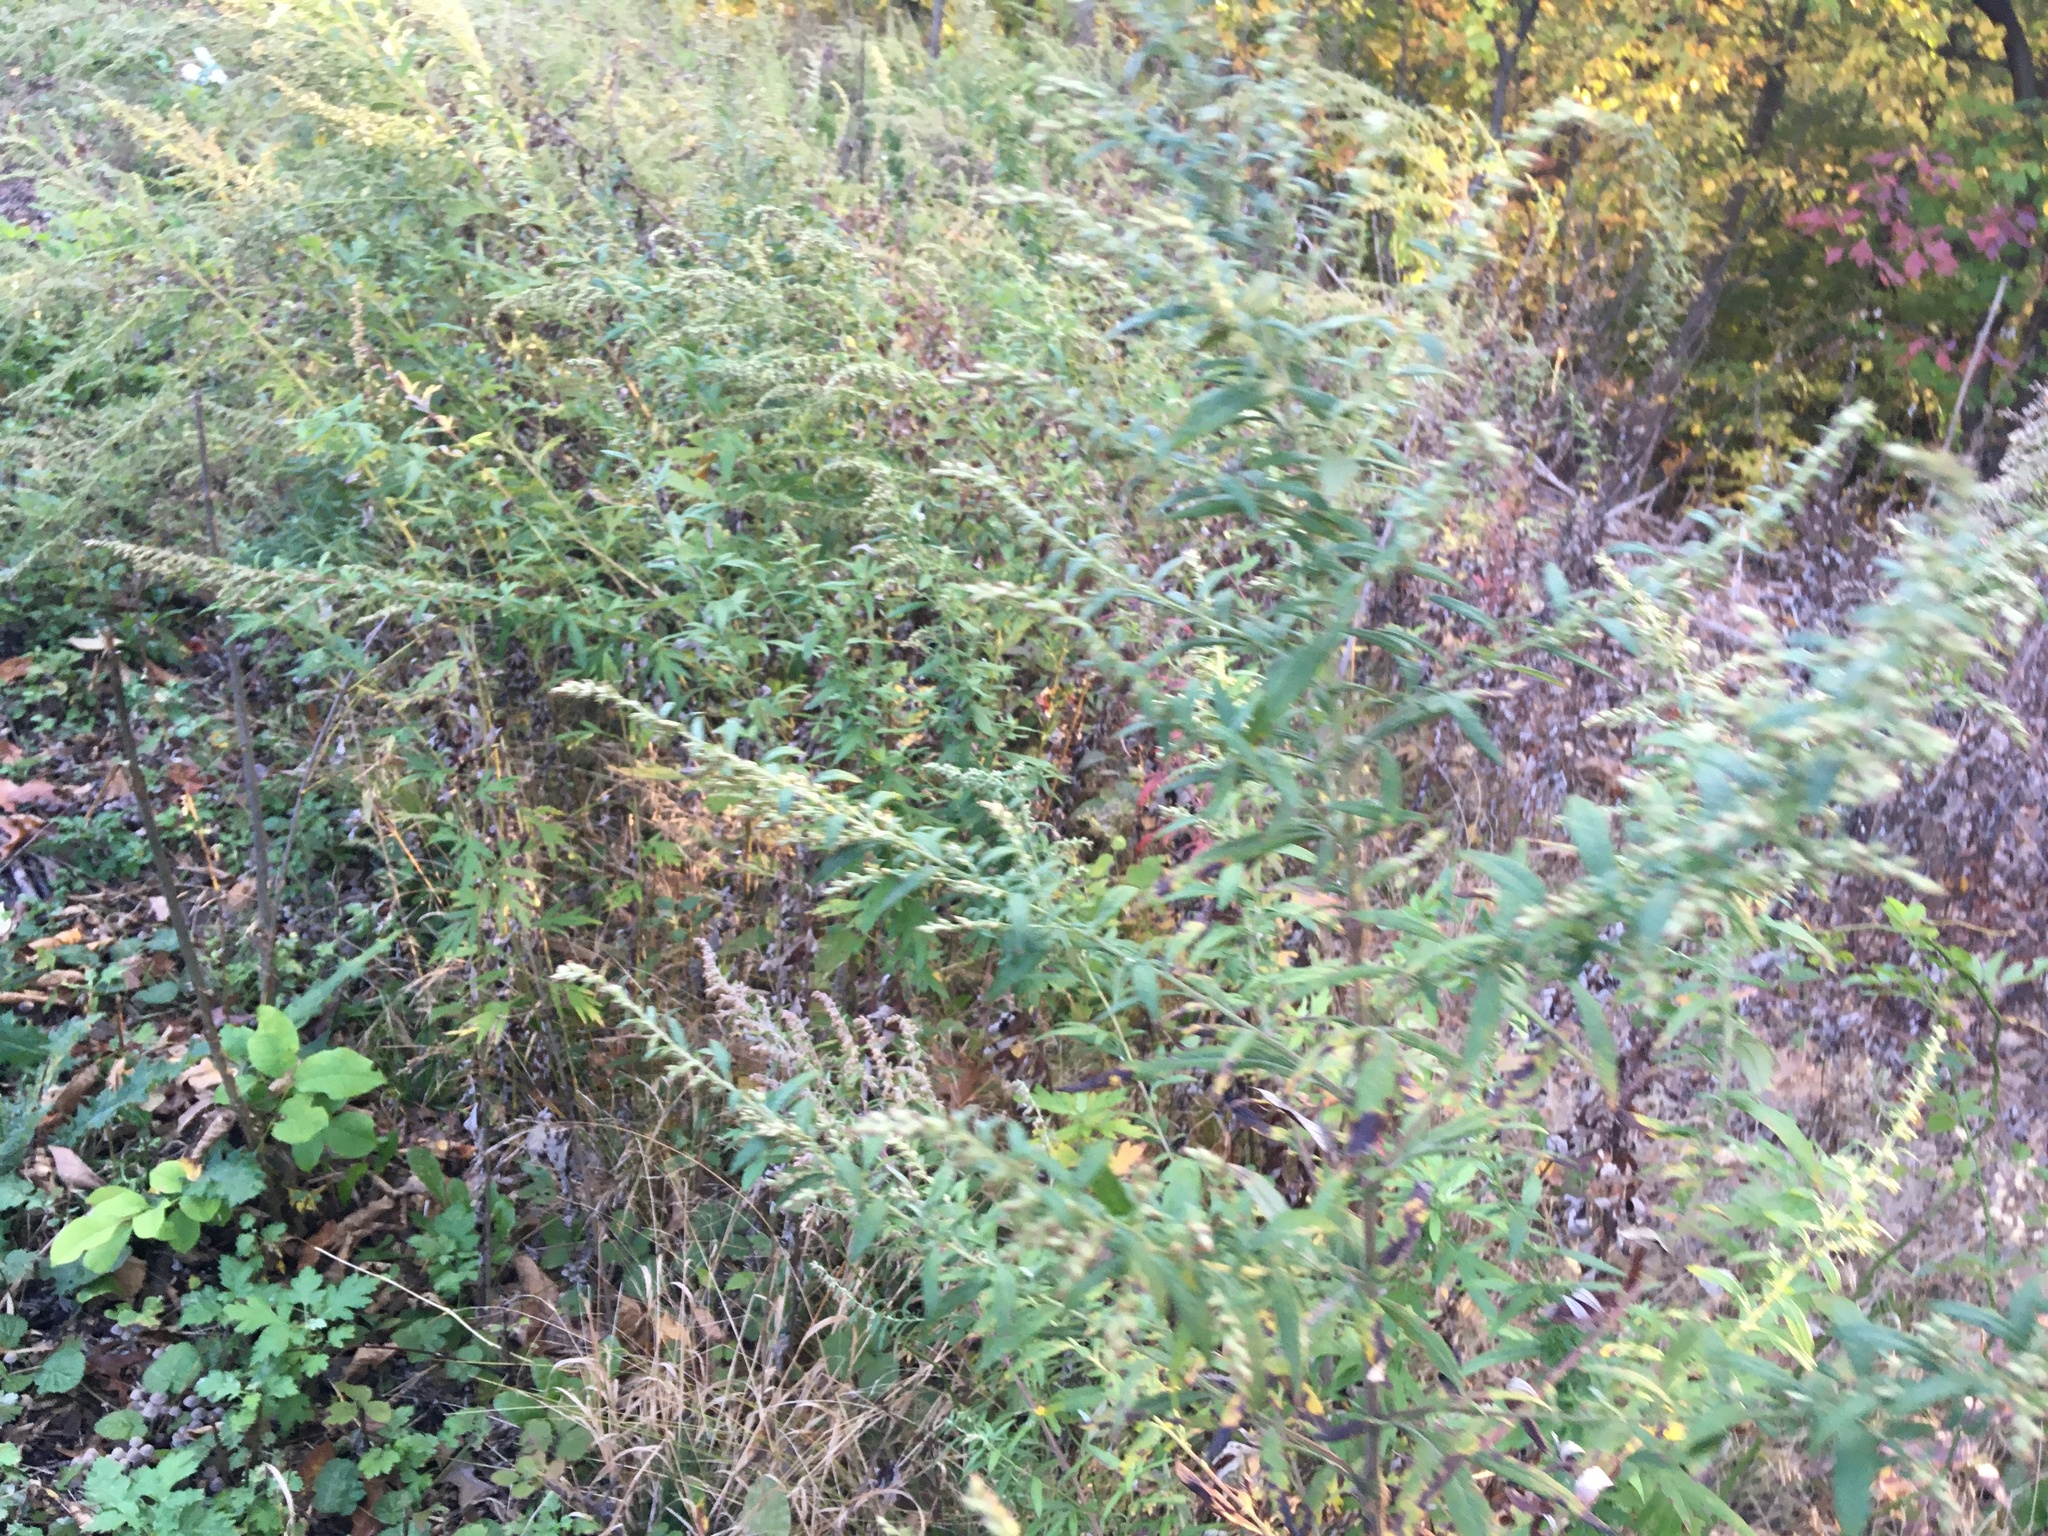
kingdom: Plantae
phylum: Tracheophyta
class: Magnoliopsida
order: Asterales
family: Asteraceae
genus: Artemisia
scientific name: Artemisia vulgaris
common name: Mugwort
